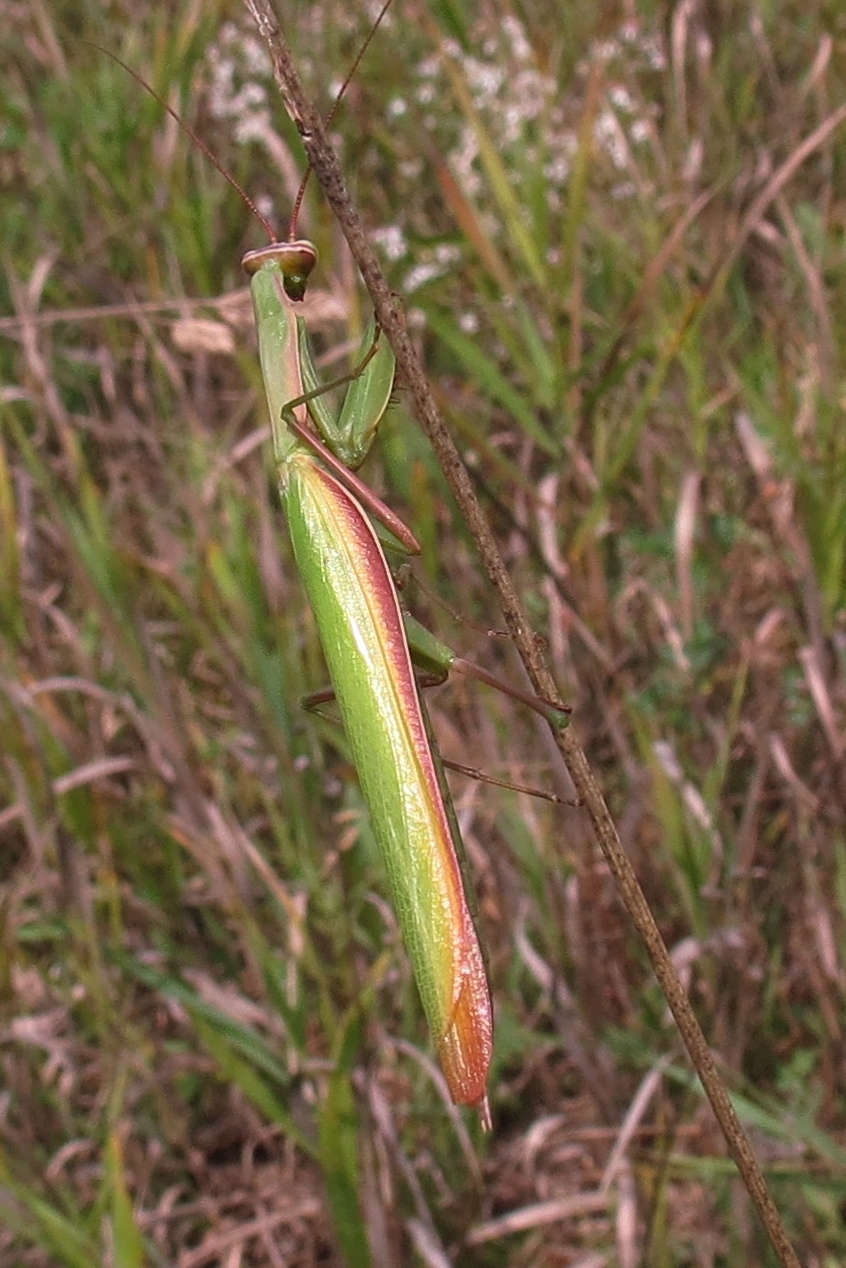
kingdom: Animalia
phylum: Arthropoda
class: Insecta
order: Mantodea
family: Mantidae
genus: Mantis
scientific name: Mantis religiosa
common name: Praying mantis
